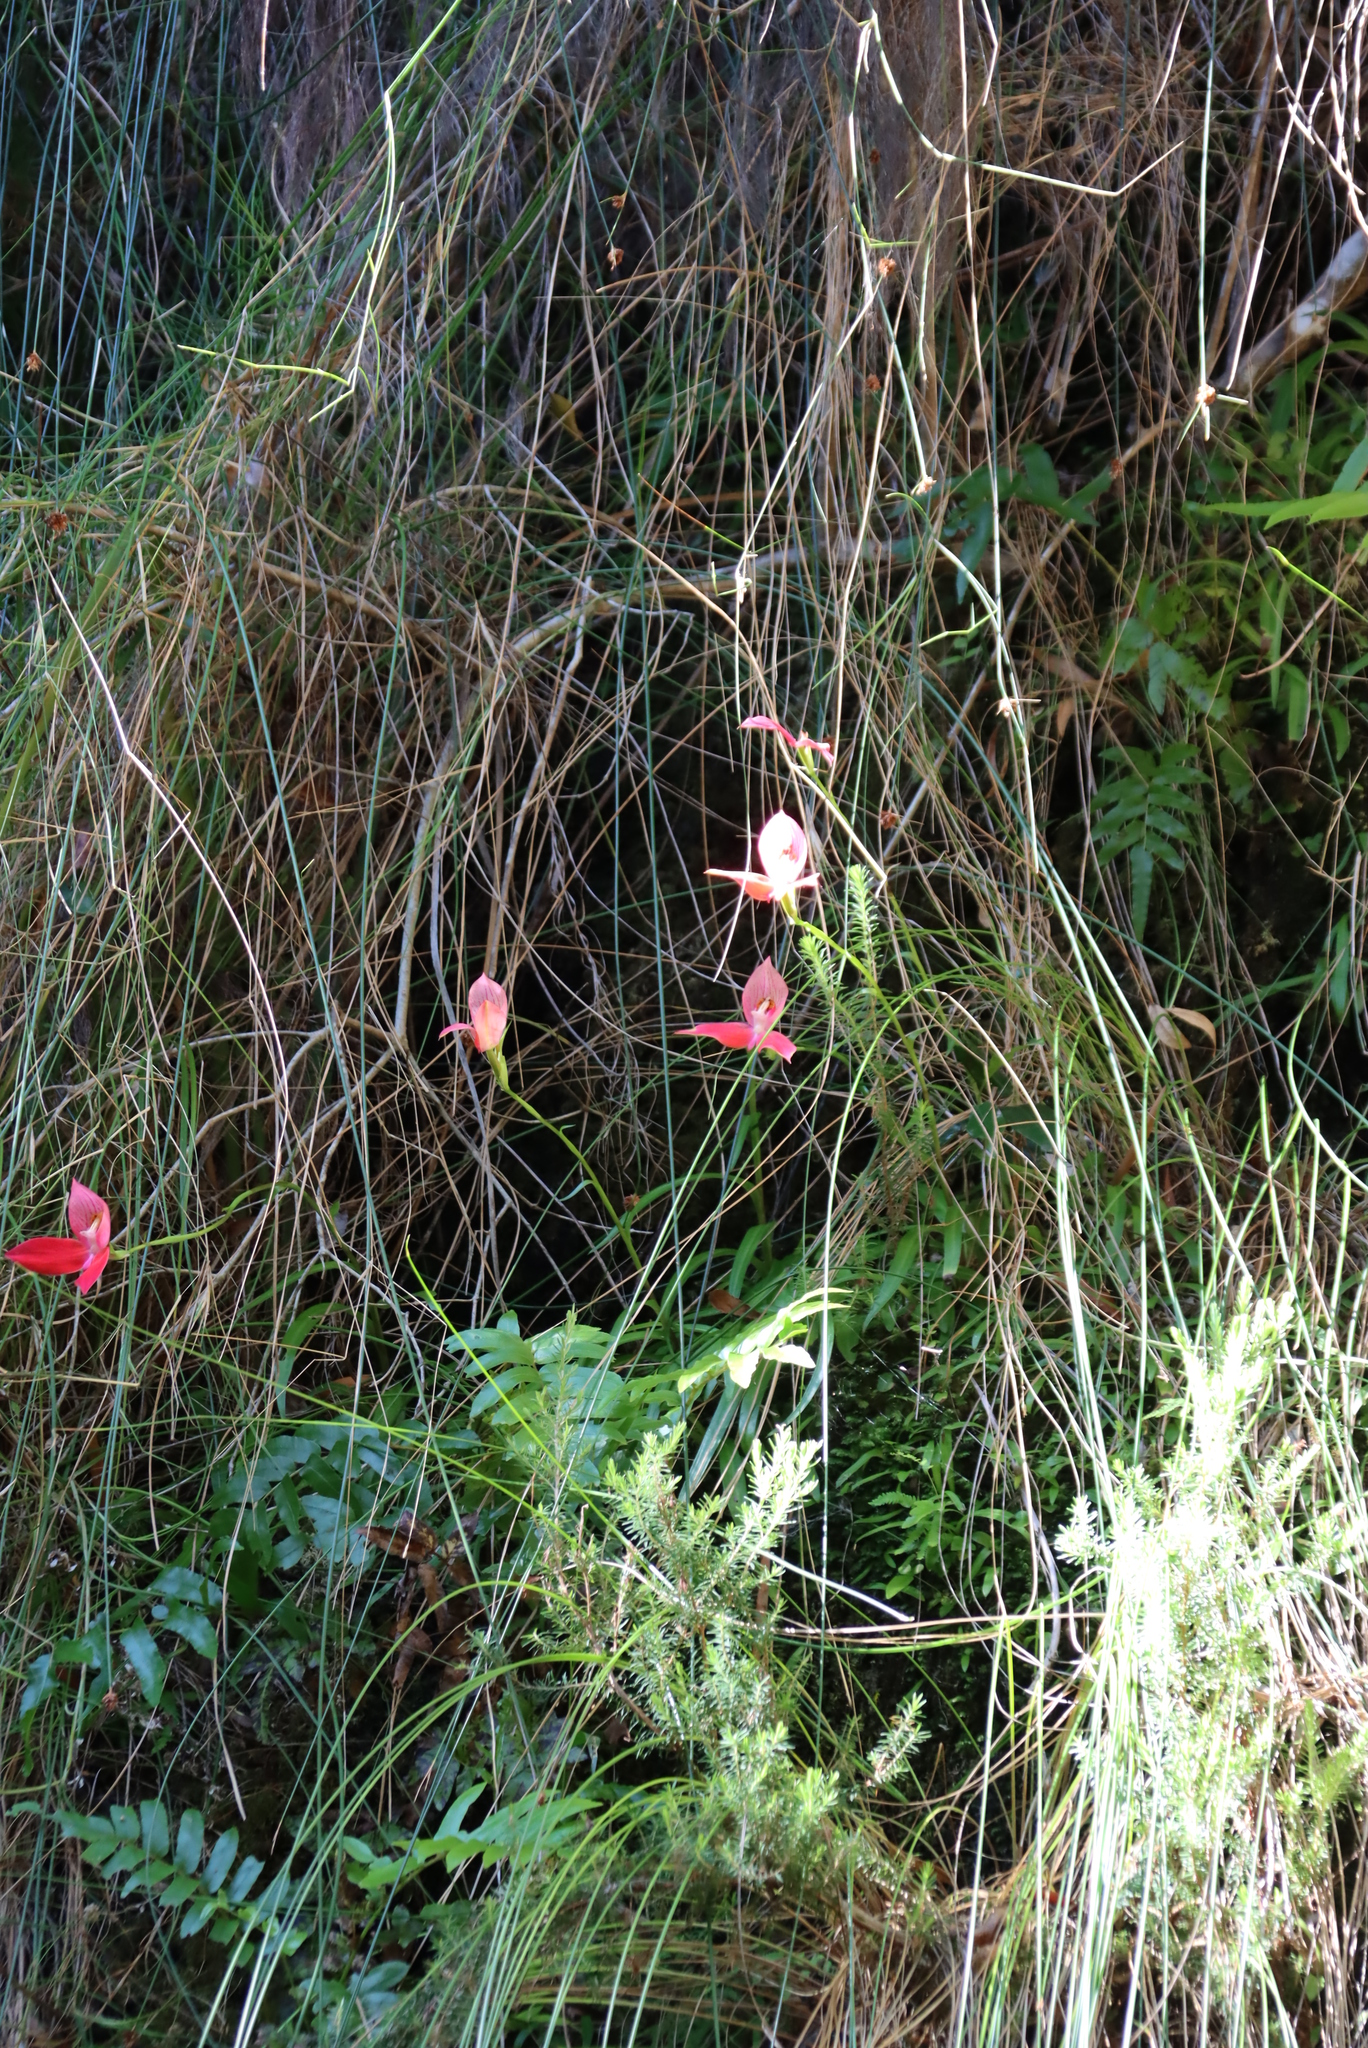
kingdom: Plantae
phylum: Tracheophyta
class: Liliopsida
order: Asparagales
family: Orchidaceae
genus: Disa
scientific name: Disa uniflora
